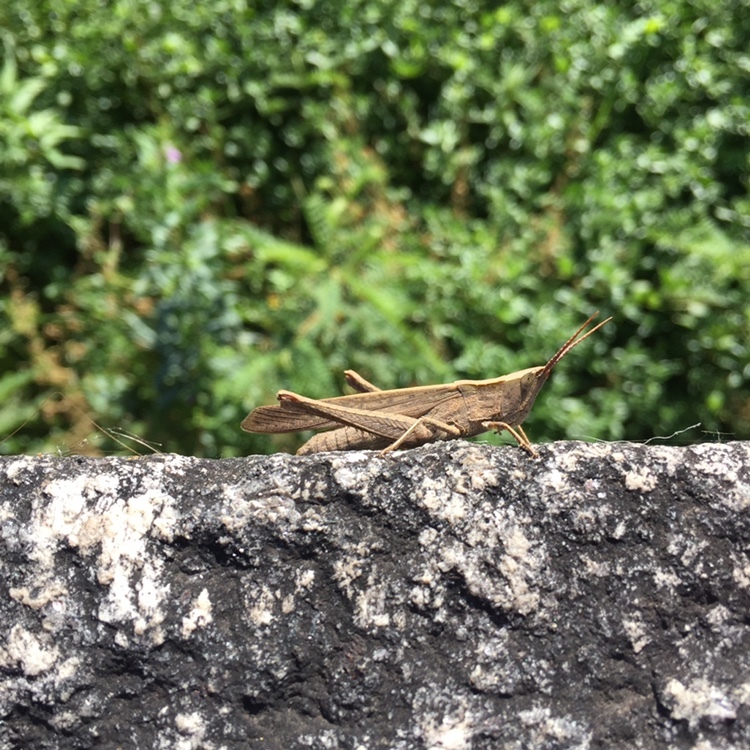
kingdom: Animalia
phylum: Arthropoda
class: Insecta
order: Orthoptera
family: Acrididae
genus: Metaleptea
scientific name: Metaleptea adspersa
